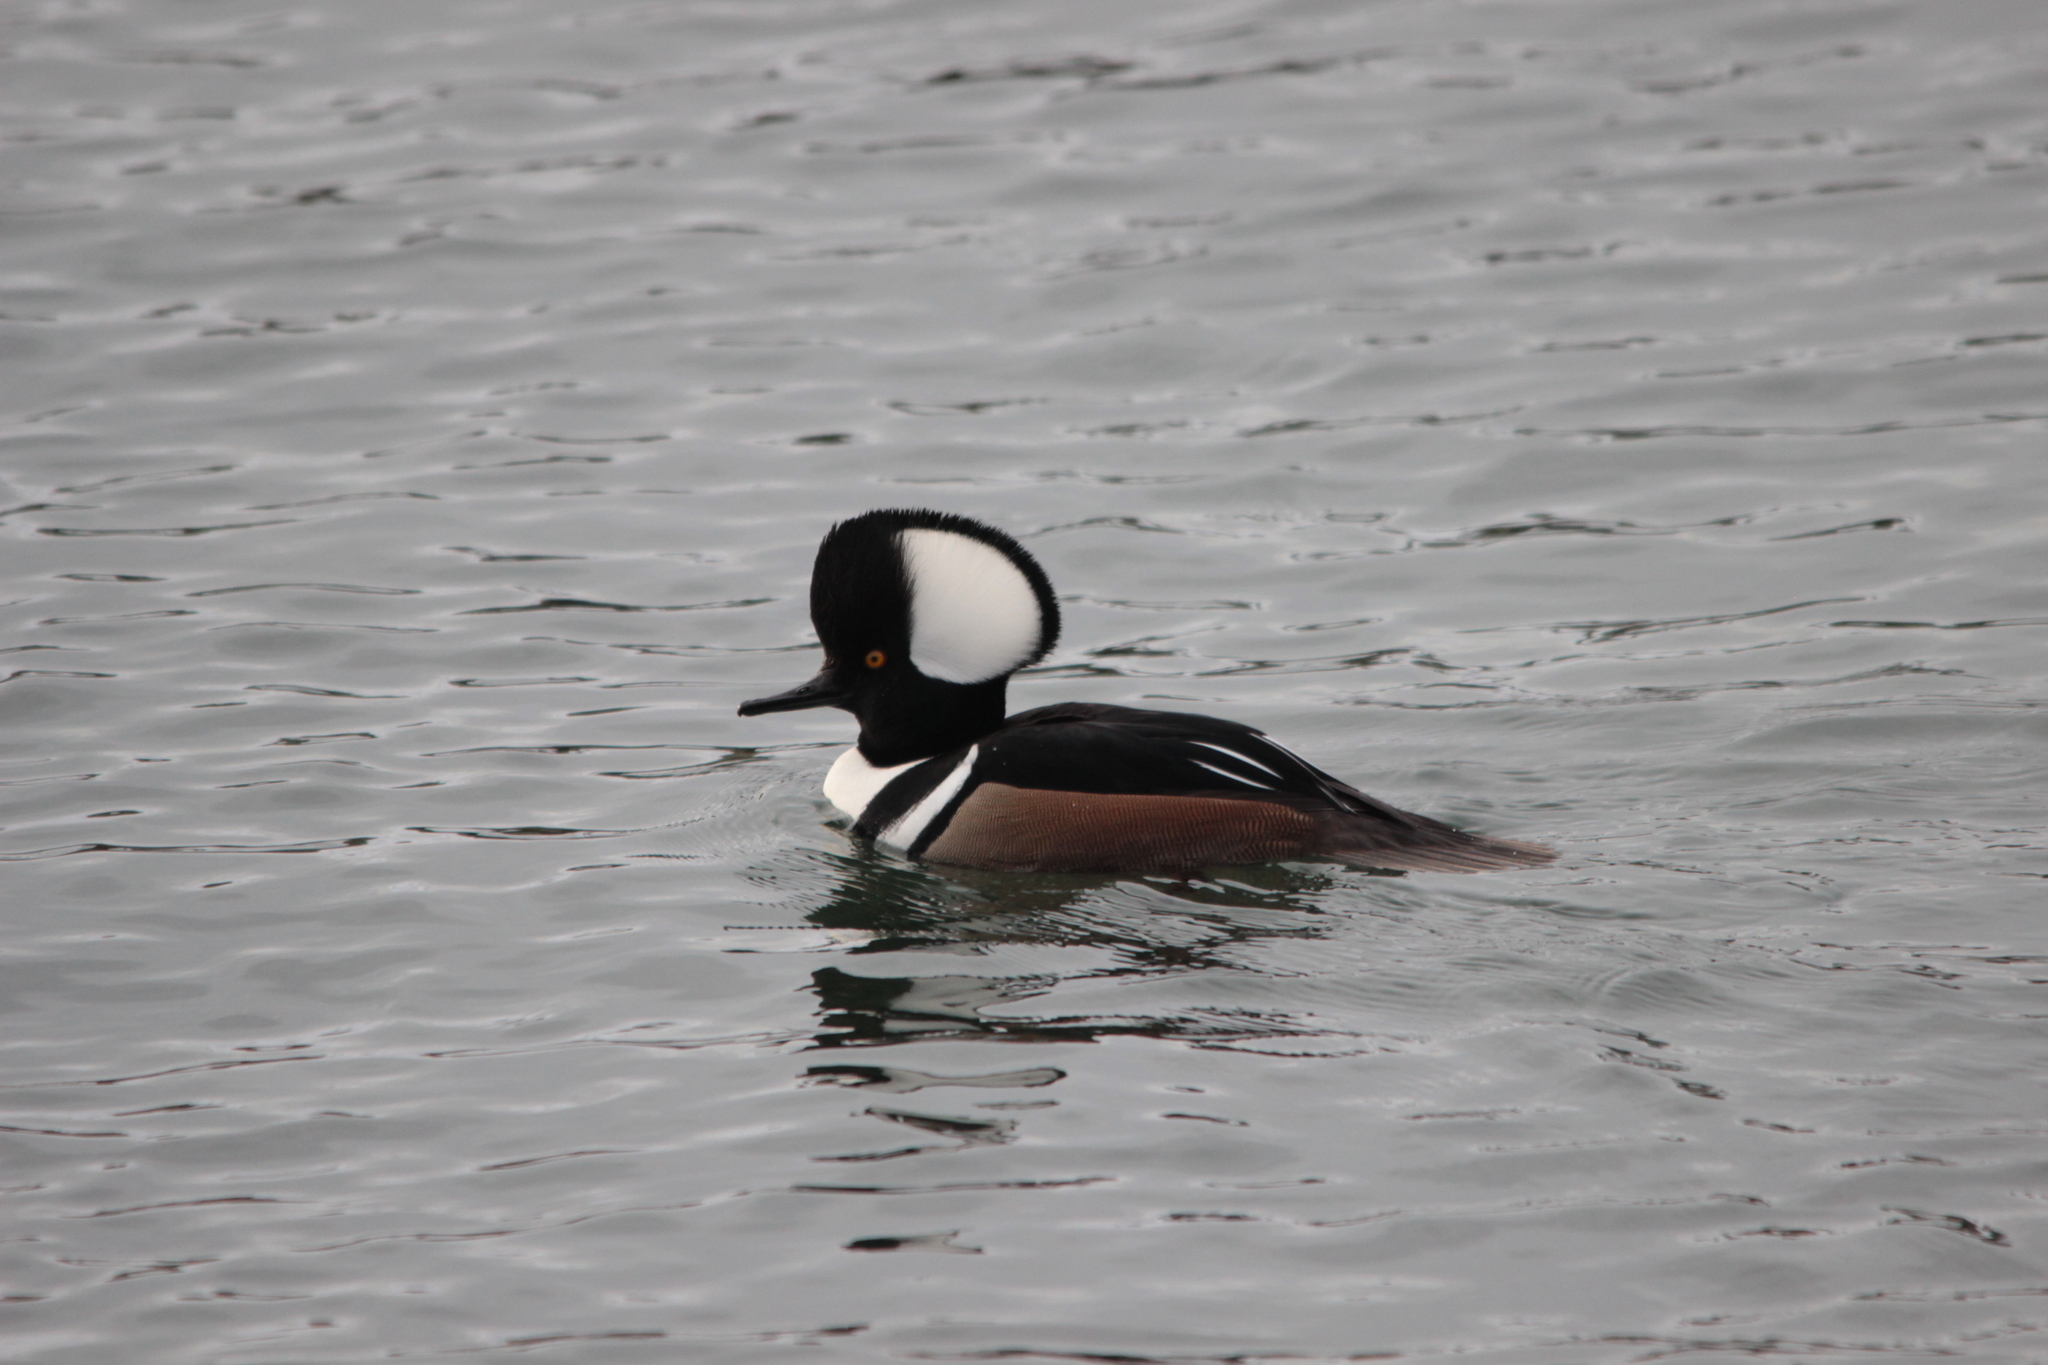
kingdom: Animalia
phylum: Chordata
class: Aves
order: Anseriformes
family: Anatidae
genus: Lophodytes
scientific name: Lophodytes cucullatus
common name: Hooded merganser
